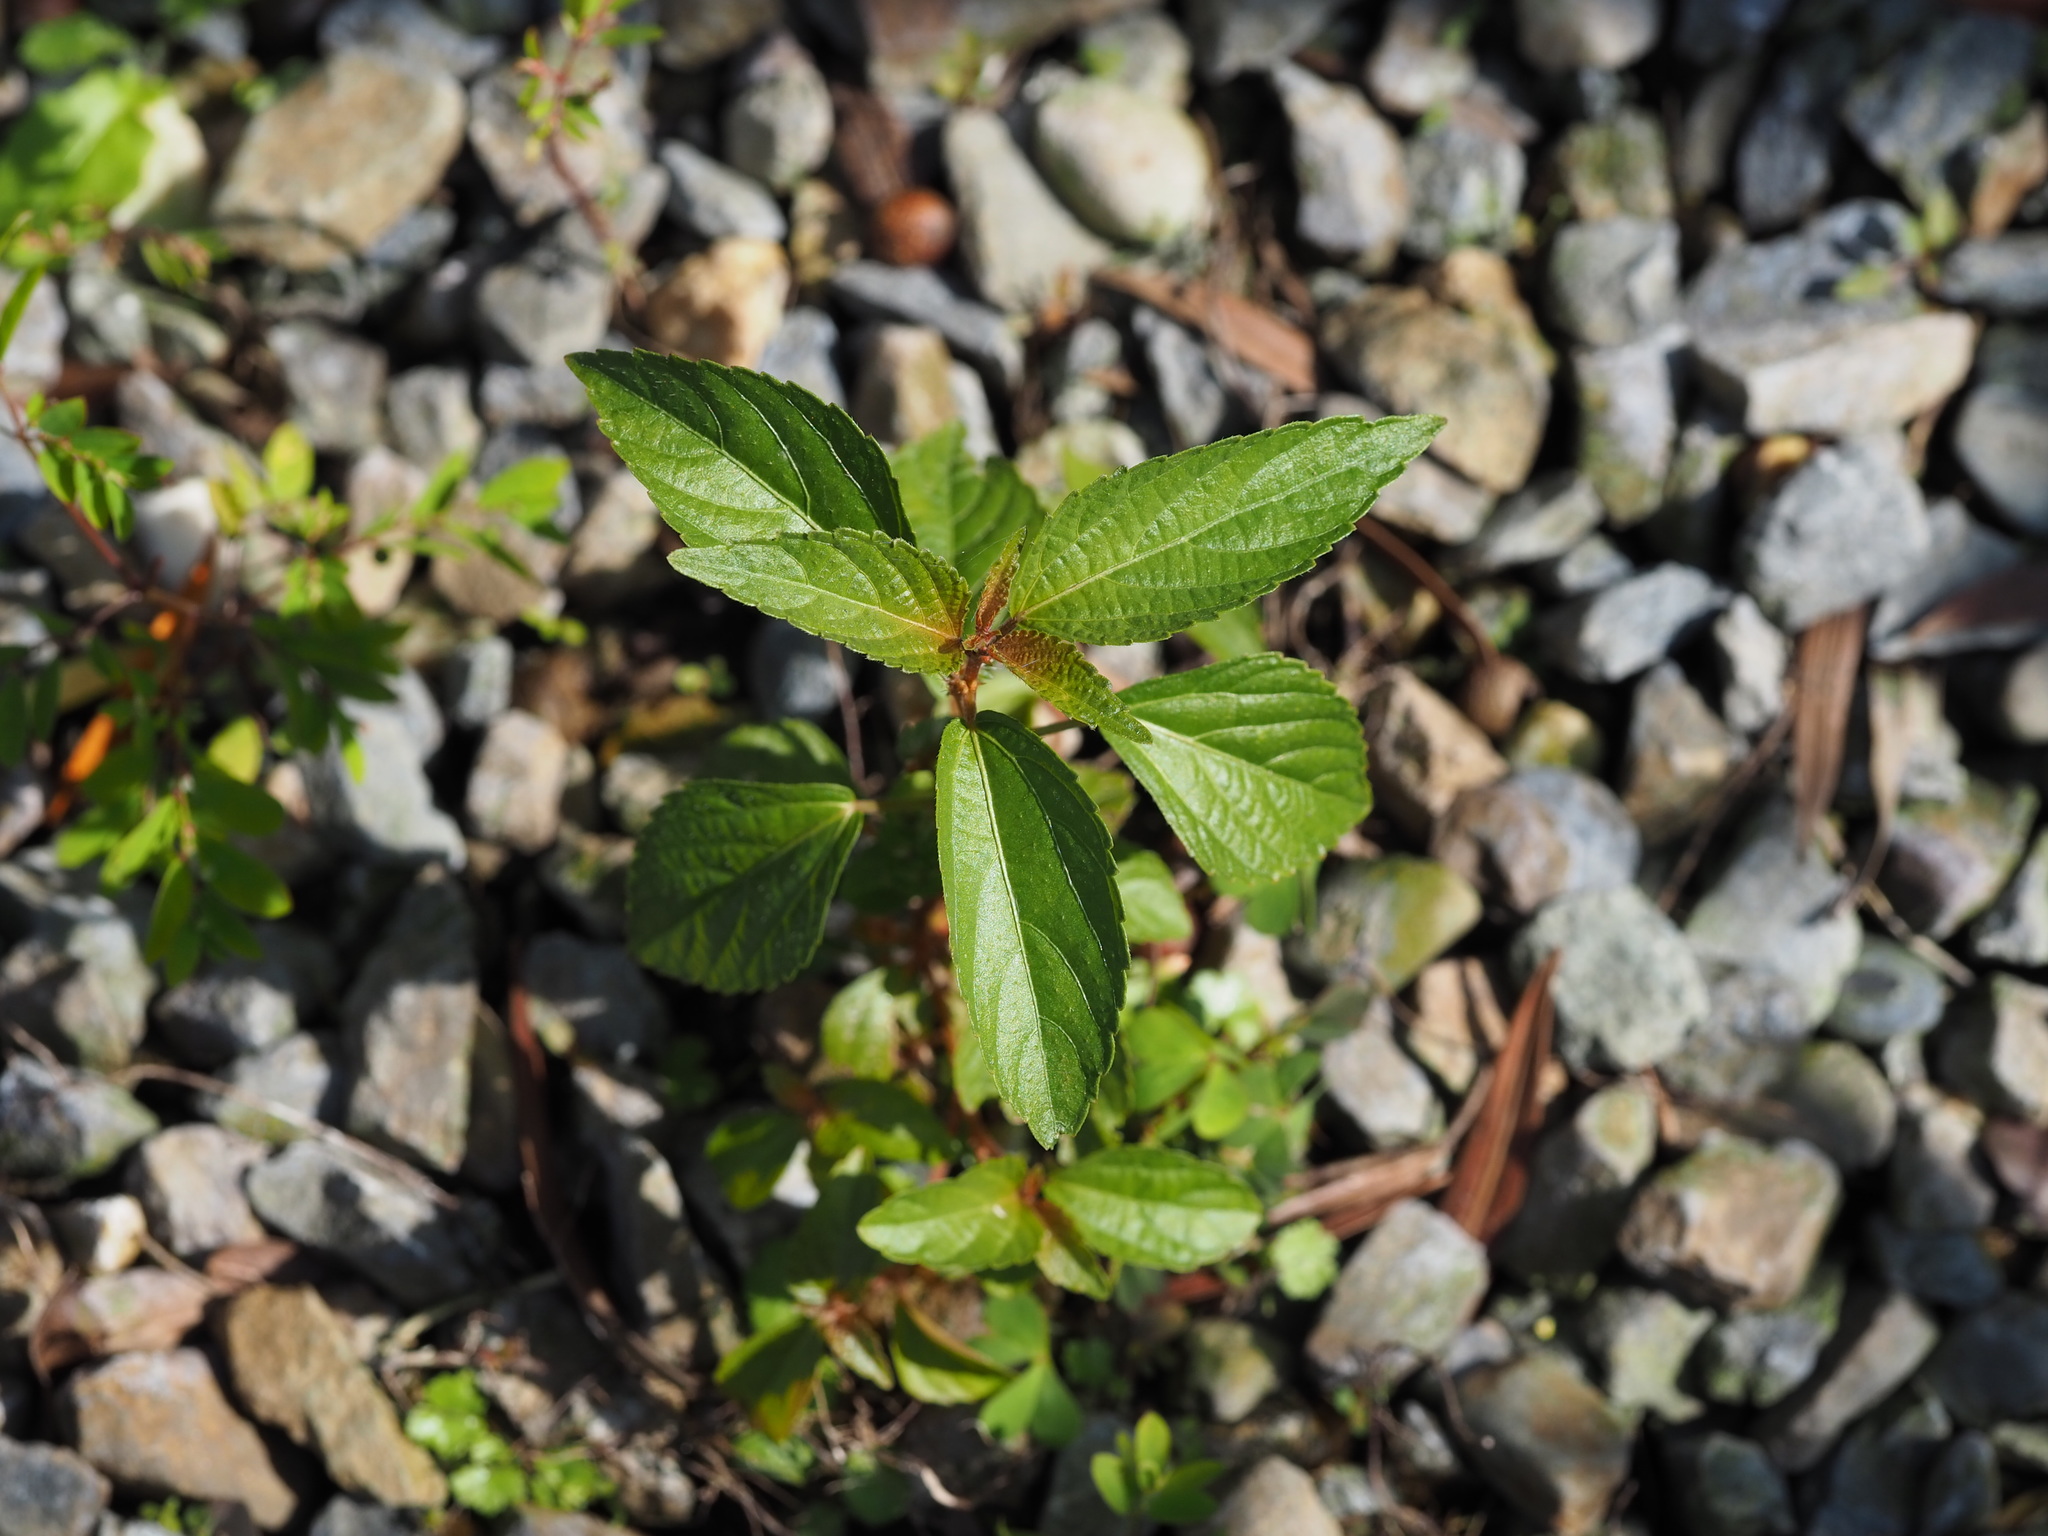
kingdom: Plantae
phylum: Tracheophyta
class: Magnoliopsida
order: Malpighiales
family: Euphorbiaceae
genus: Acalypha
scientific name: Acalypha australis
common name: Asian copperleaf
